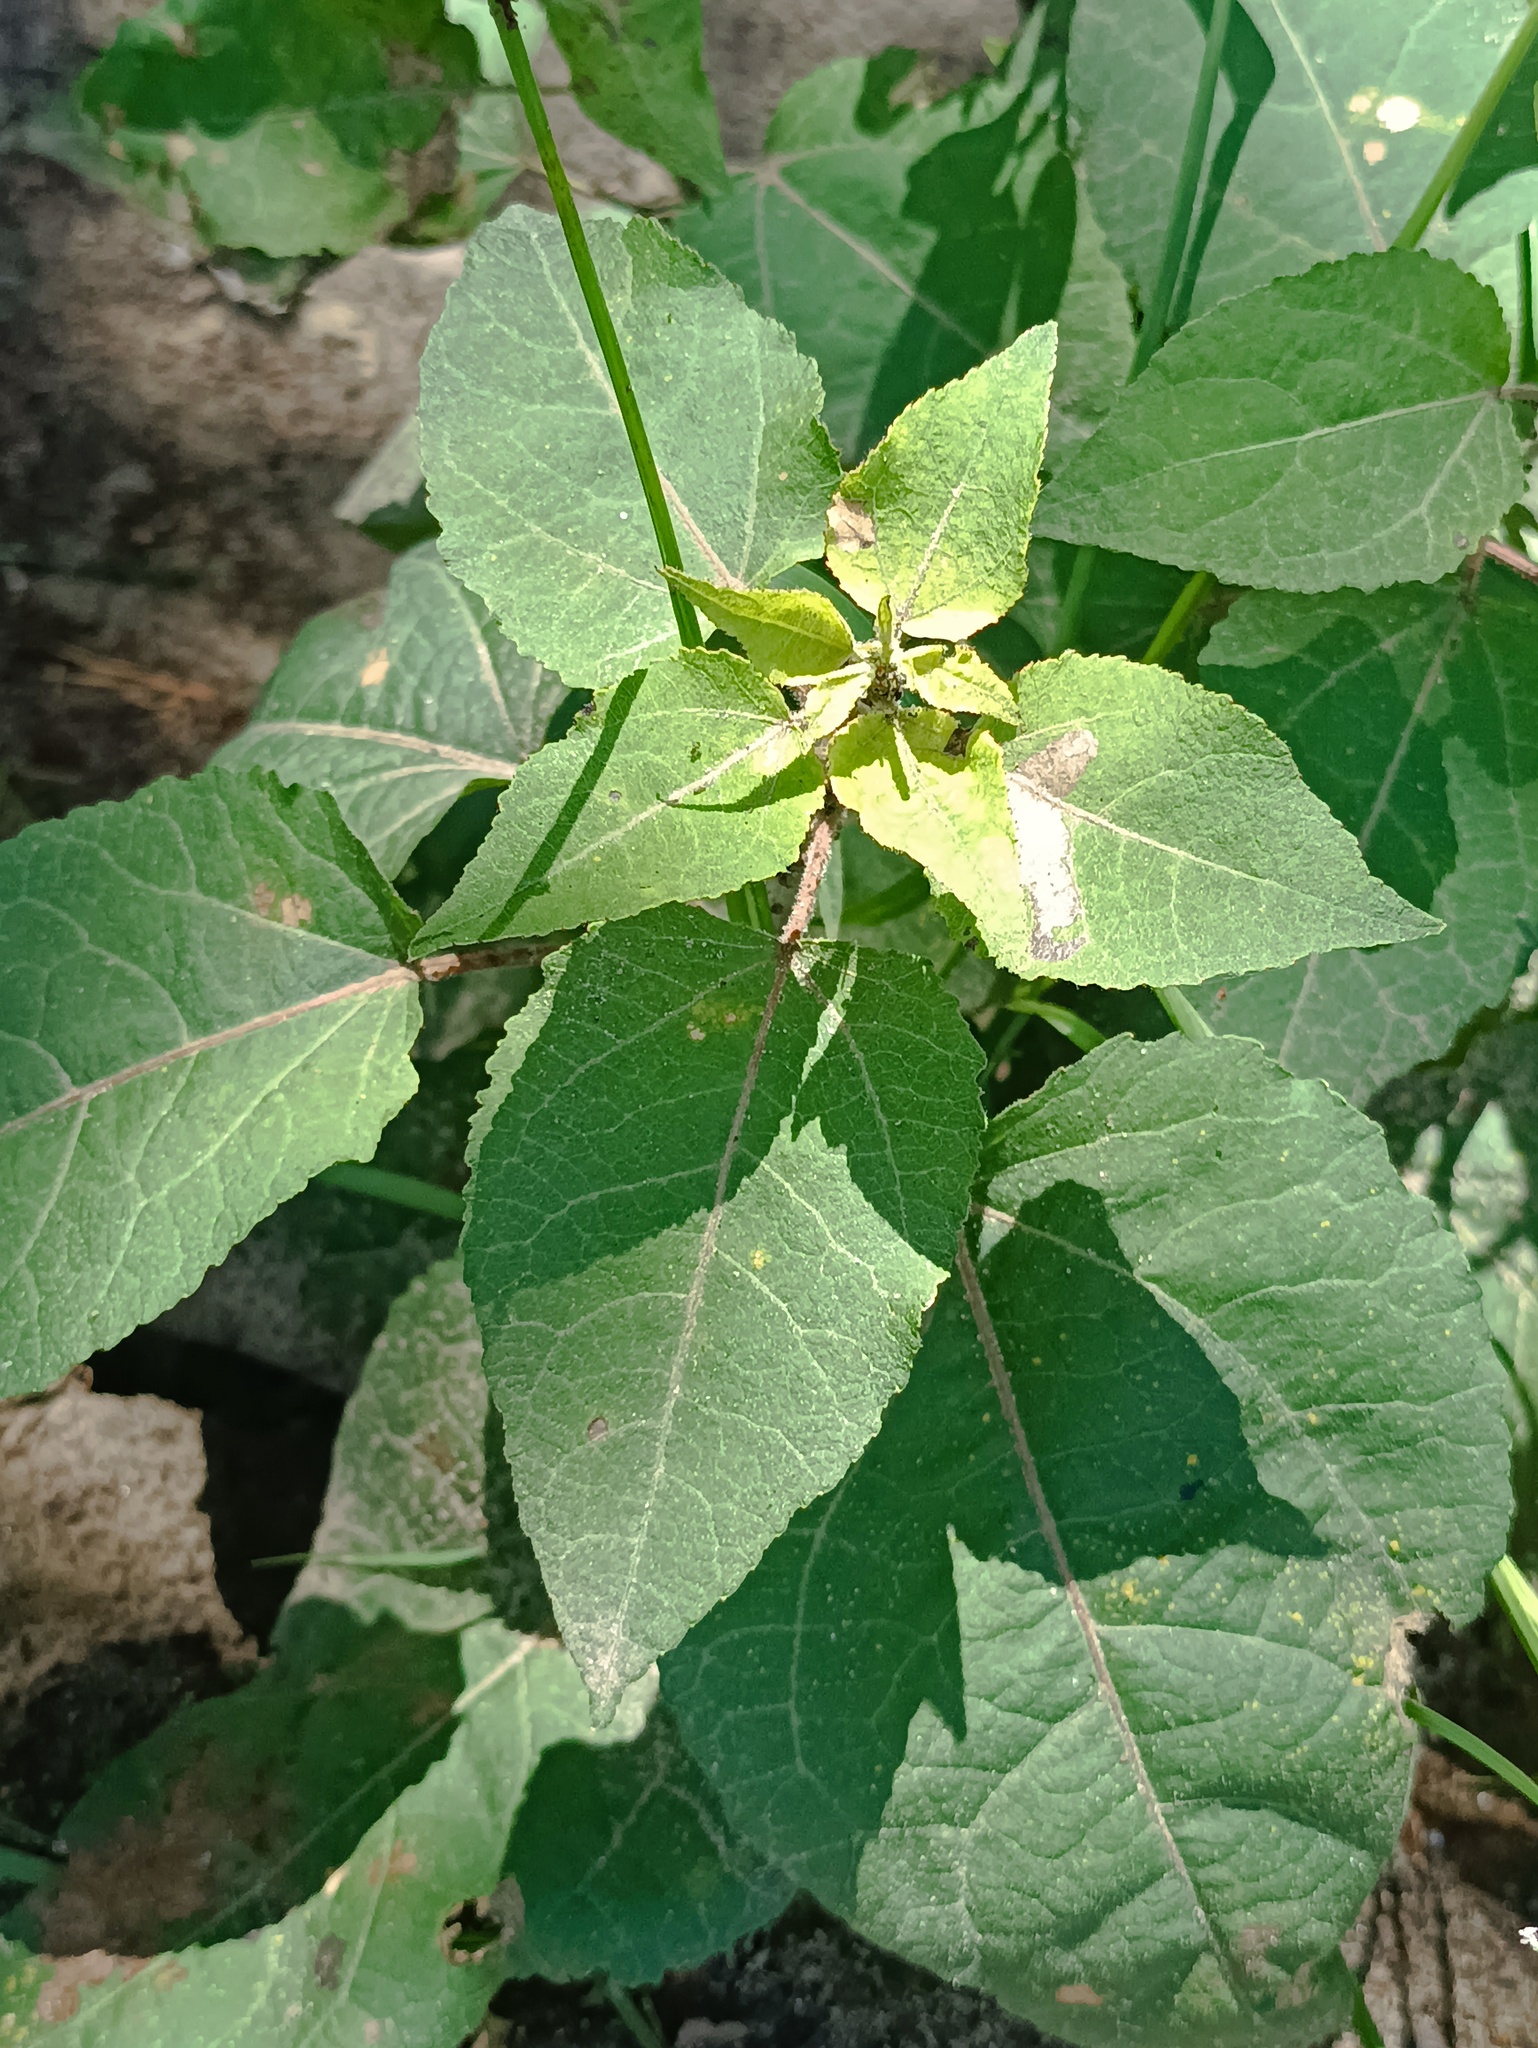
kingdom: Plantae
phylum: Tracheophyta
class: Magnoliopsida
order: Malpighiales
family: Salicaceae
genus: Populus
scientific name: Populus tremula
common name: European aspen
